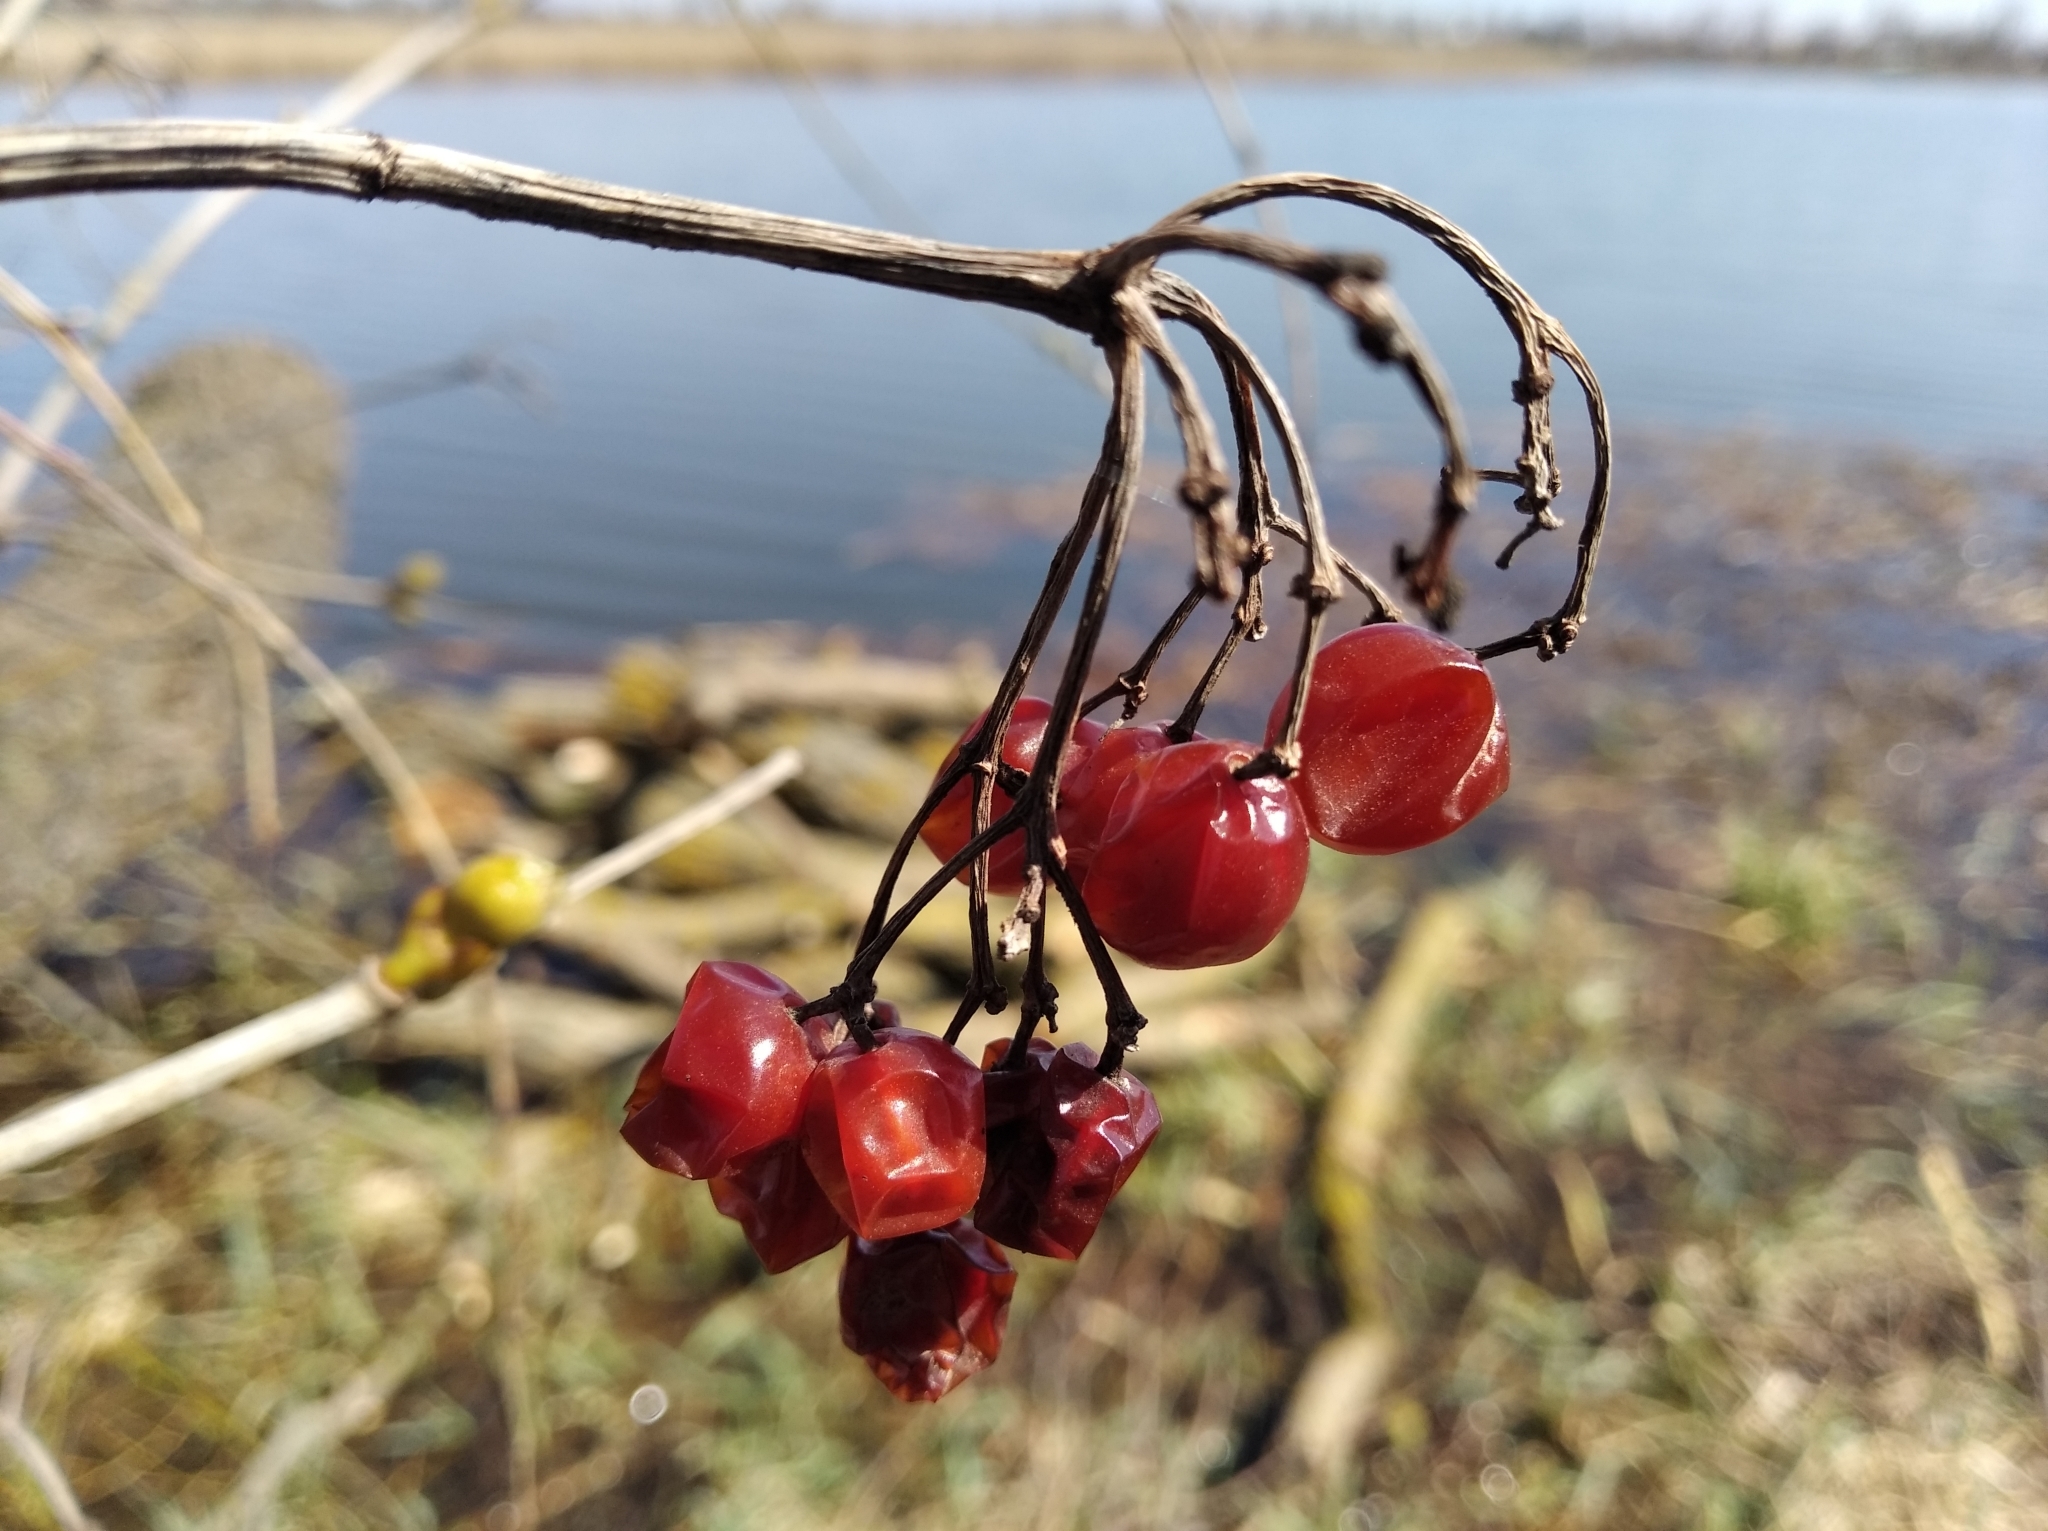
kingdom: Plantae
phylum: Tracheophyta
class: Magnoliopsida
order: Dipsacales
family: Viburnaceae
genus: Viburnum
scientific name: Viburnum opulus
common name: Guelder-rose
